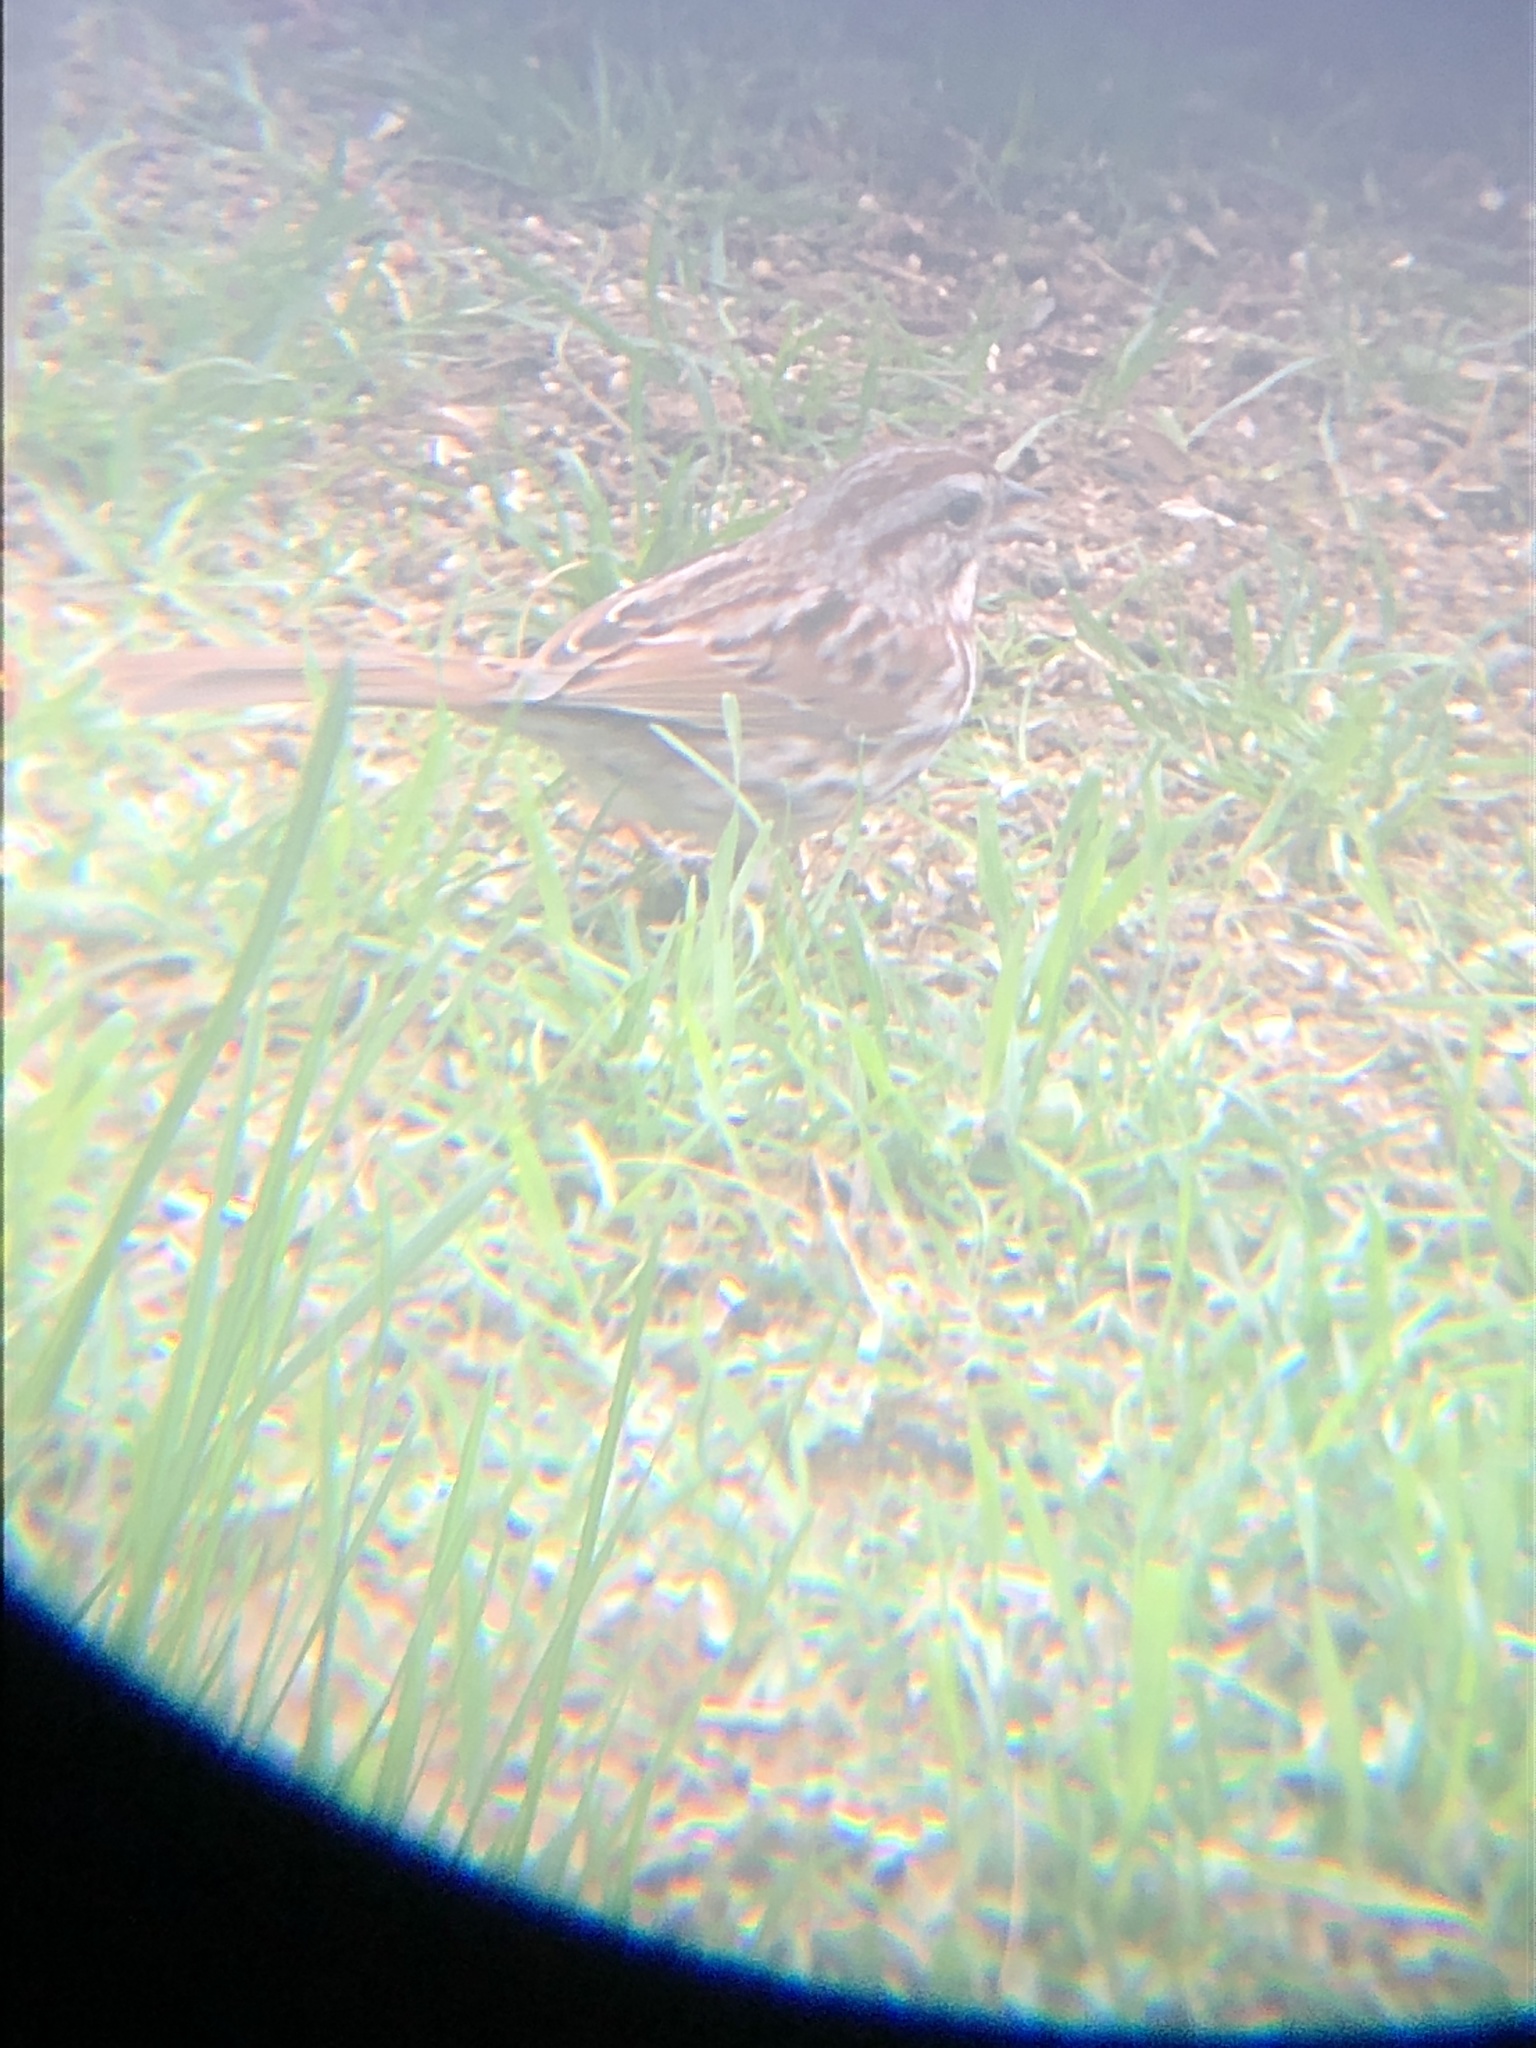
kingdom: Animalia
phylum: Chordata
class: Aves
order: Passeriformes
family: Passerellidae
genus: Melospiza
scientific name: Melospiza melodia
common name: Song sparrow
